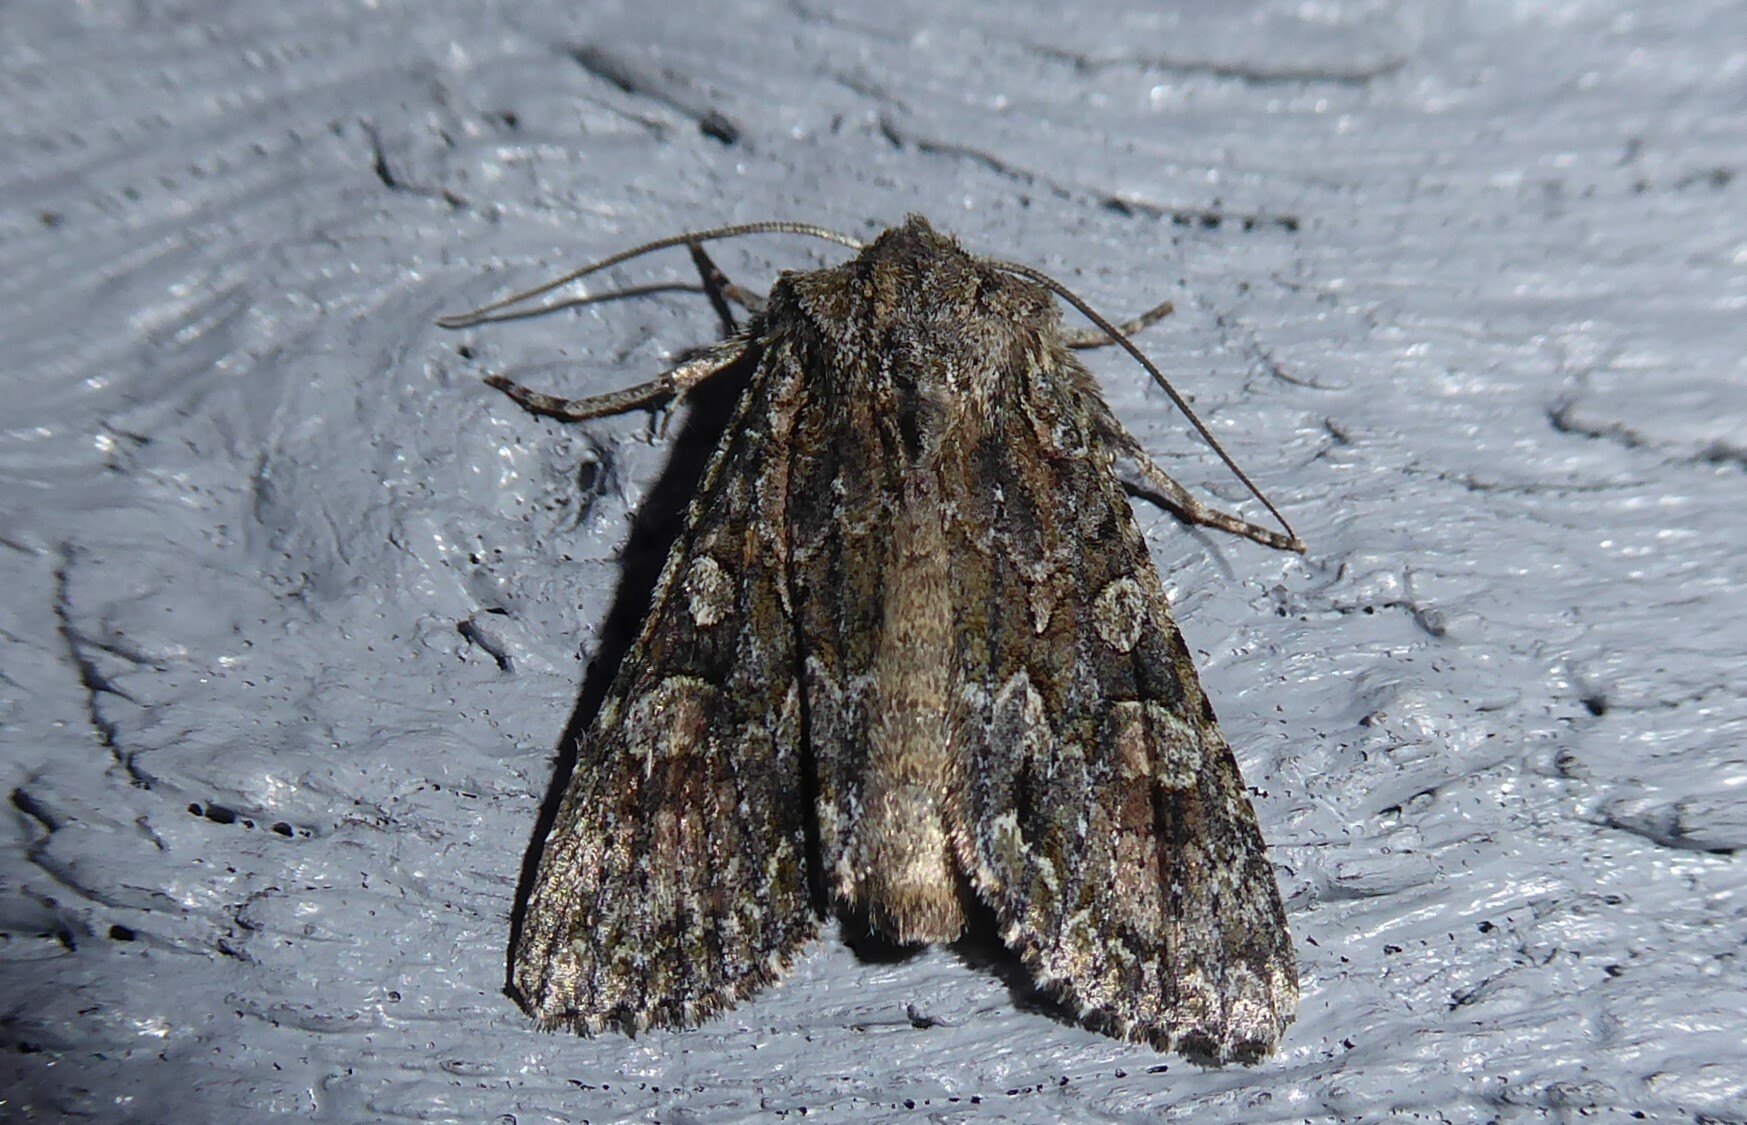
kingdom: Animalia
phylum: Arthropoda
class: Insecta
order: Lepidoptera
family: Noctuidae
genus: Ichneutica
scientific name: Ichneutica mutans
